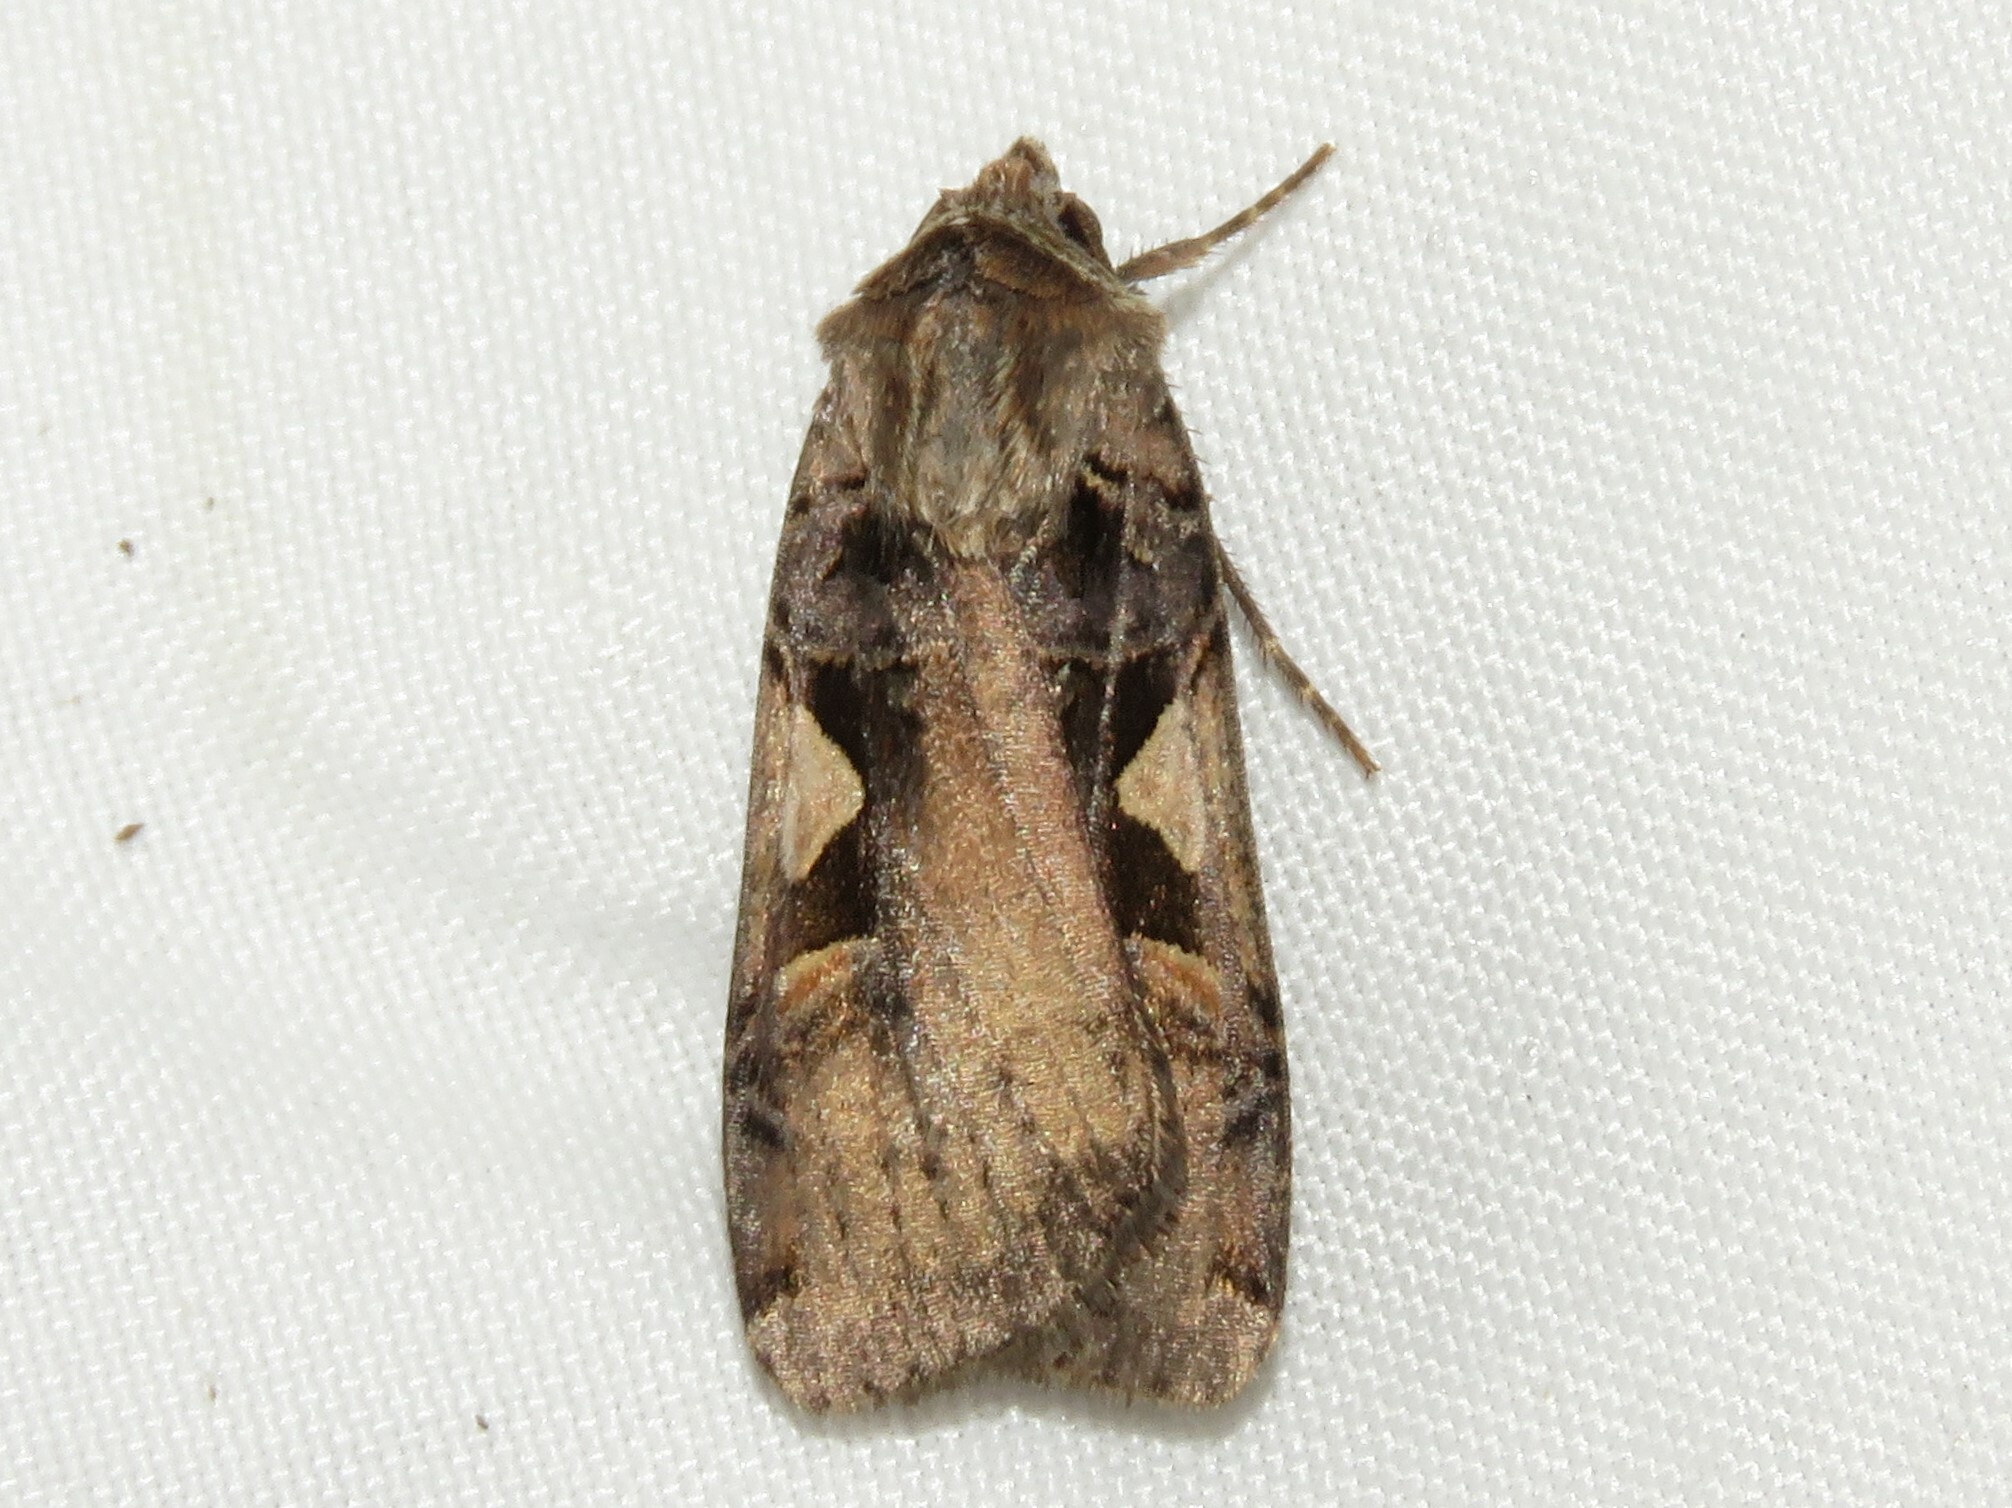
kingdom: Animalia
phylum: Arthropoda
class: Insecta
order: Lepidoptera
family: Noctuidae
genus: Xestia
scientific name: Xestia
